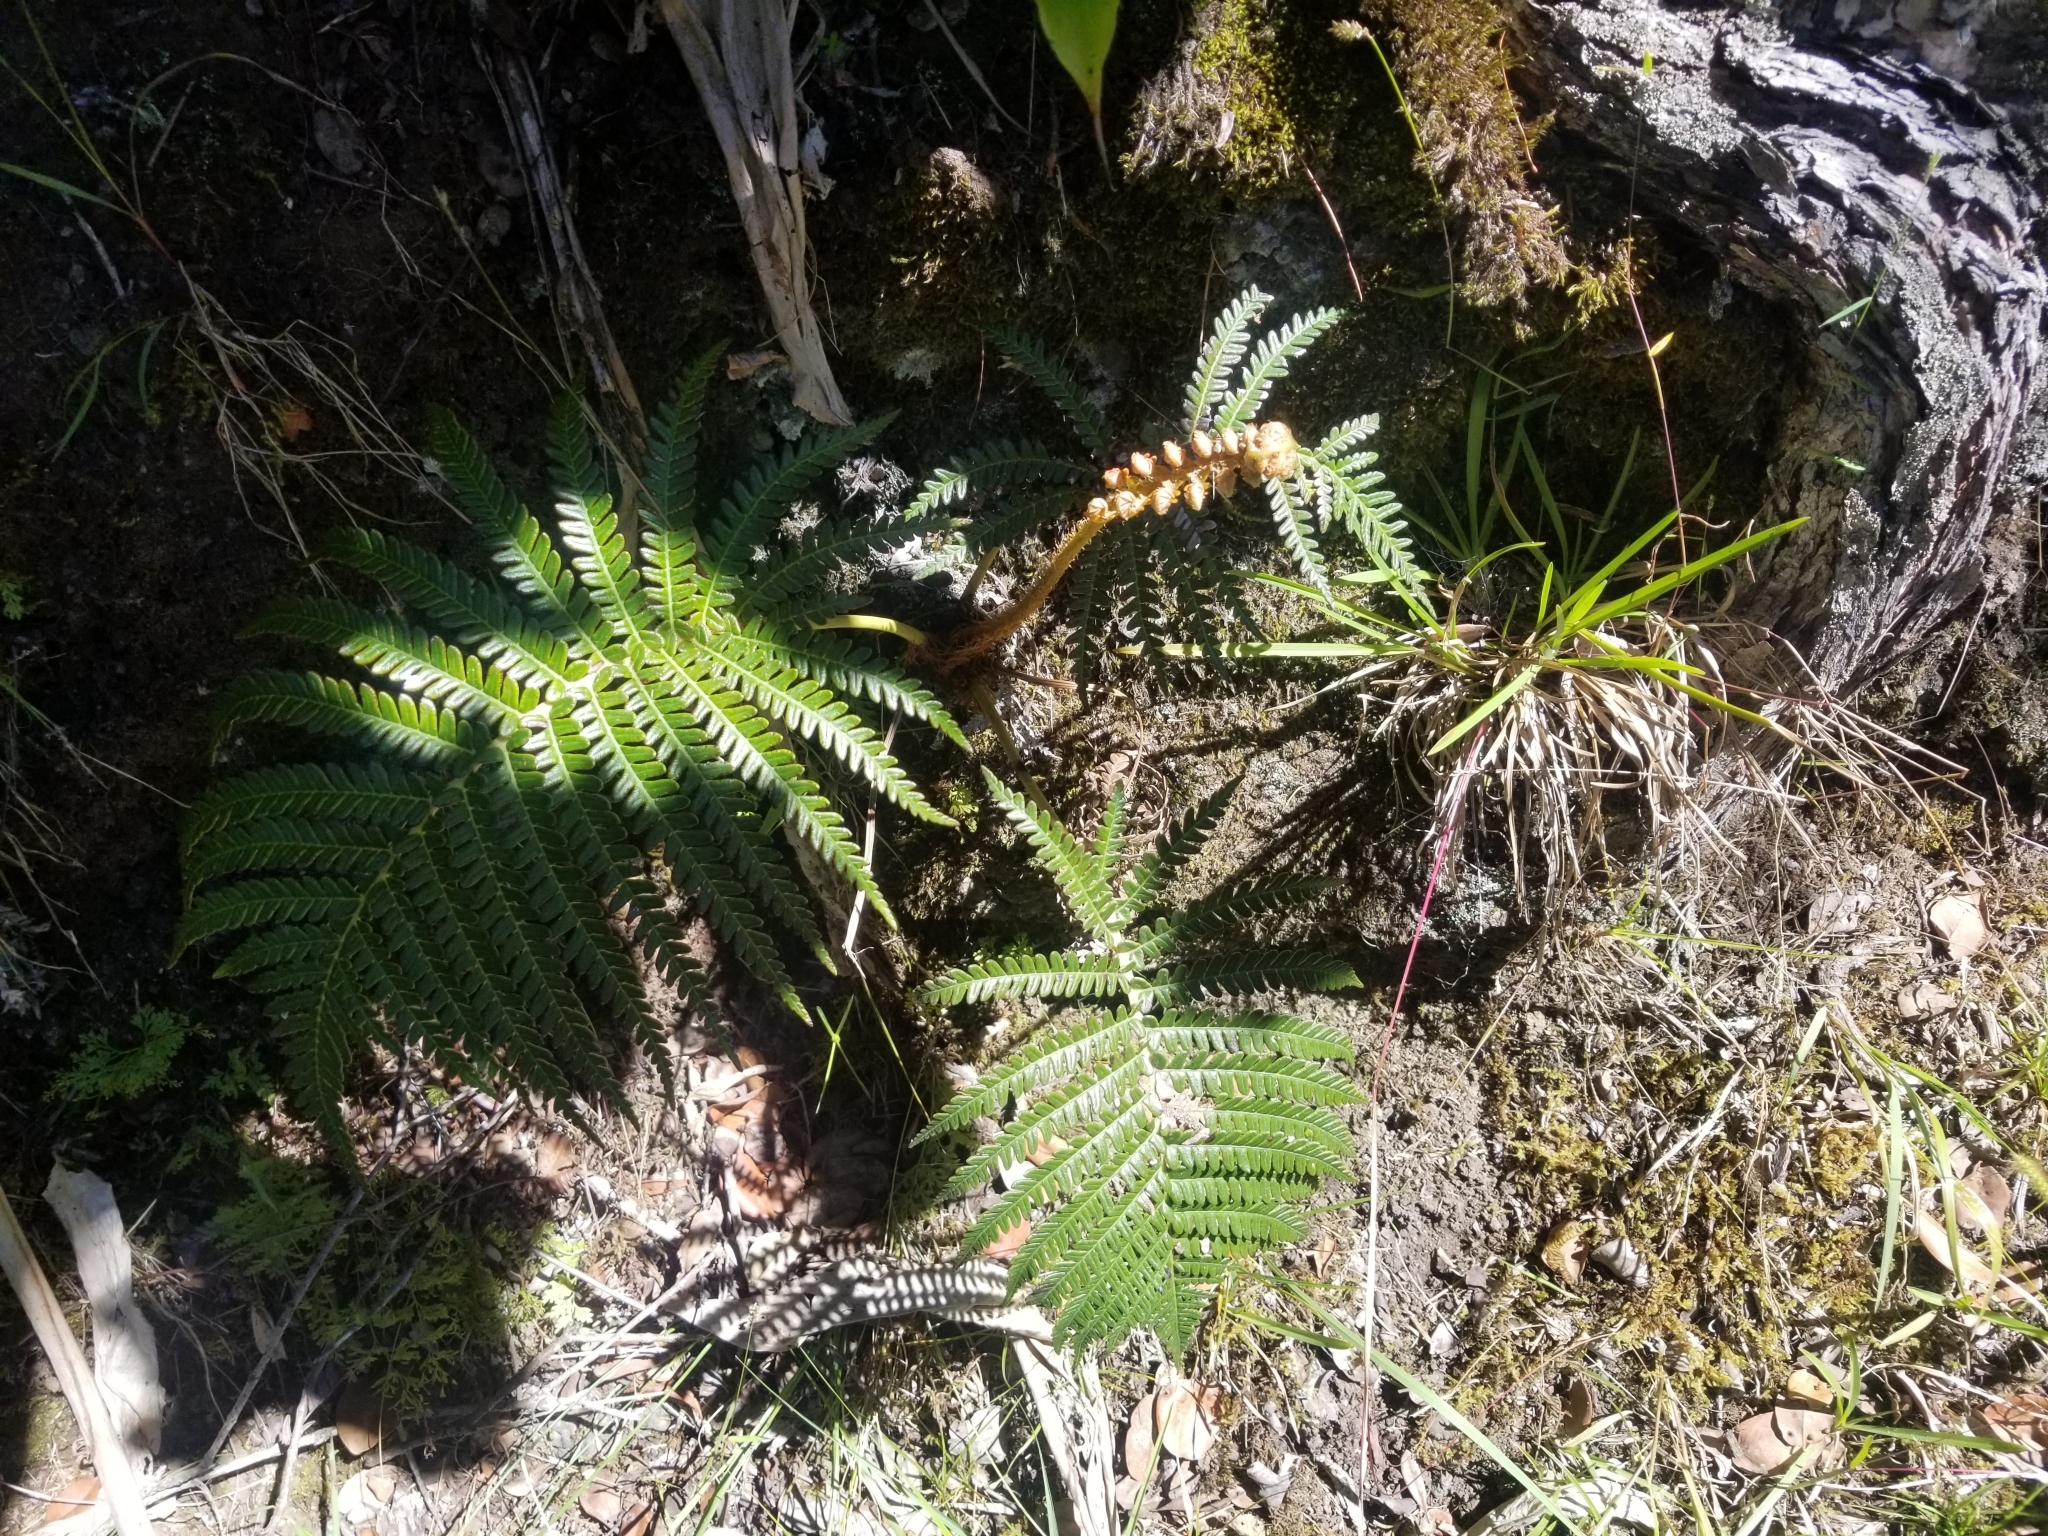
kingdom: Plantae
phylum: Tracheophyta
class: Polypodiopsida
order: Polypodiales
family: Blechnaceae
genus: Sadleria
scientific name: Sadleria cyatheoides
